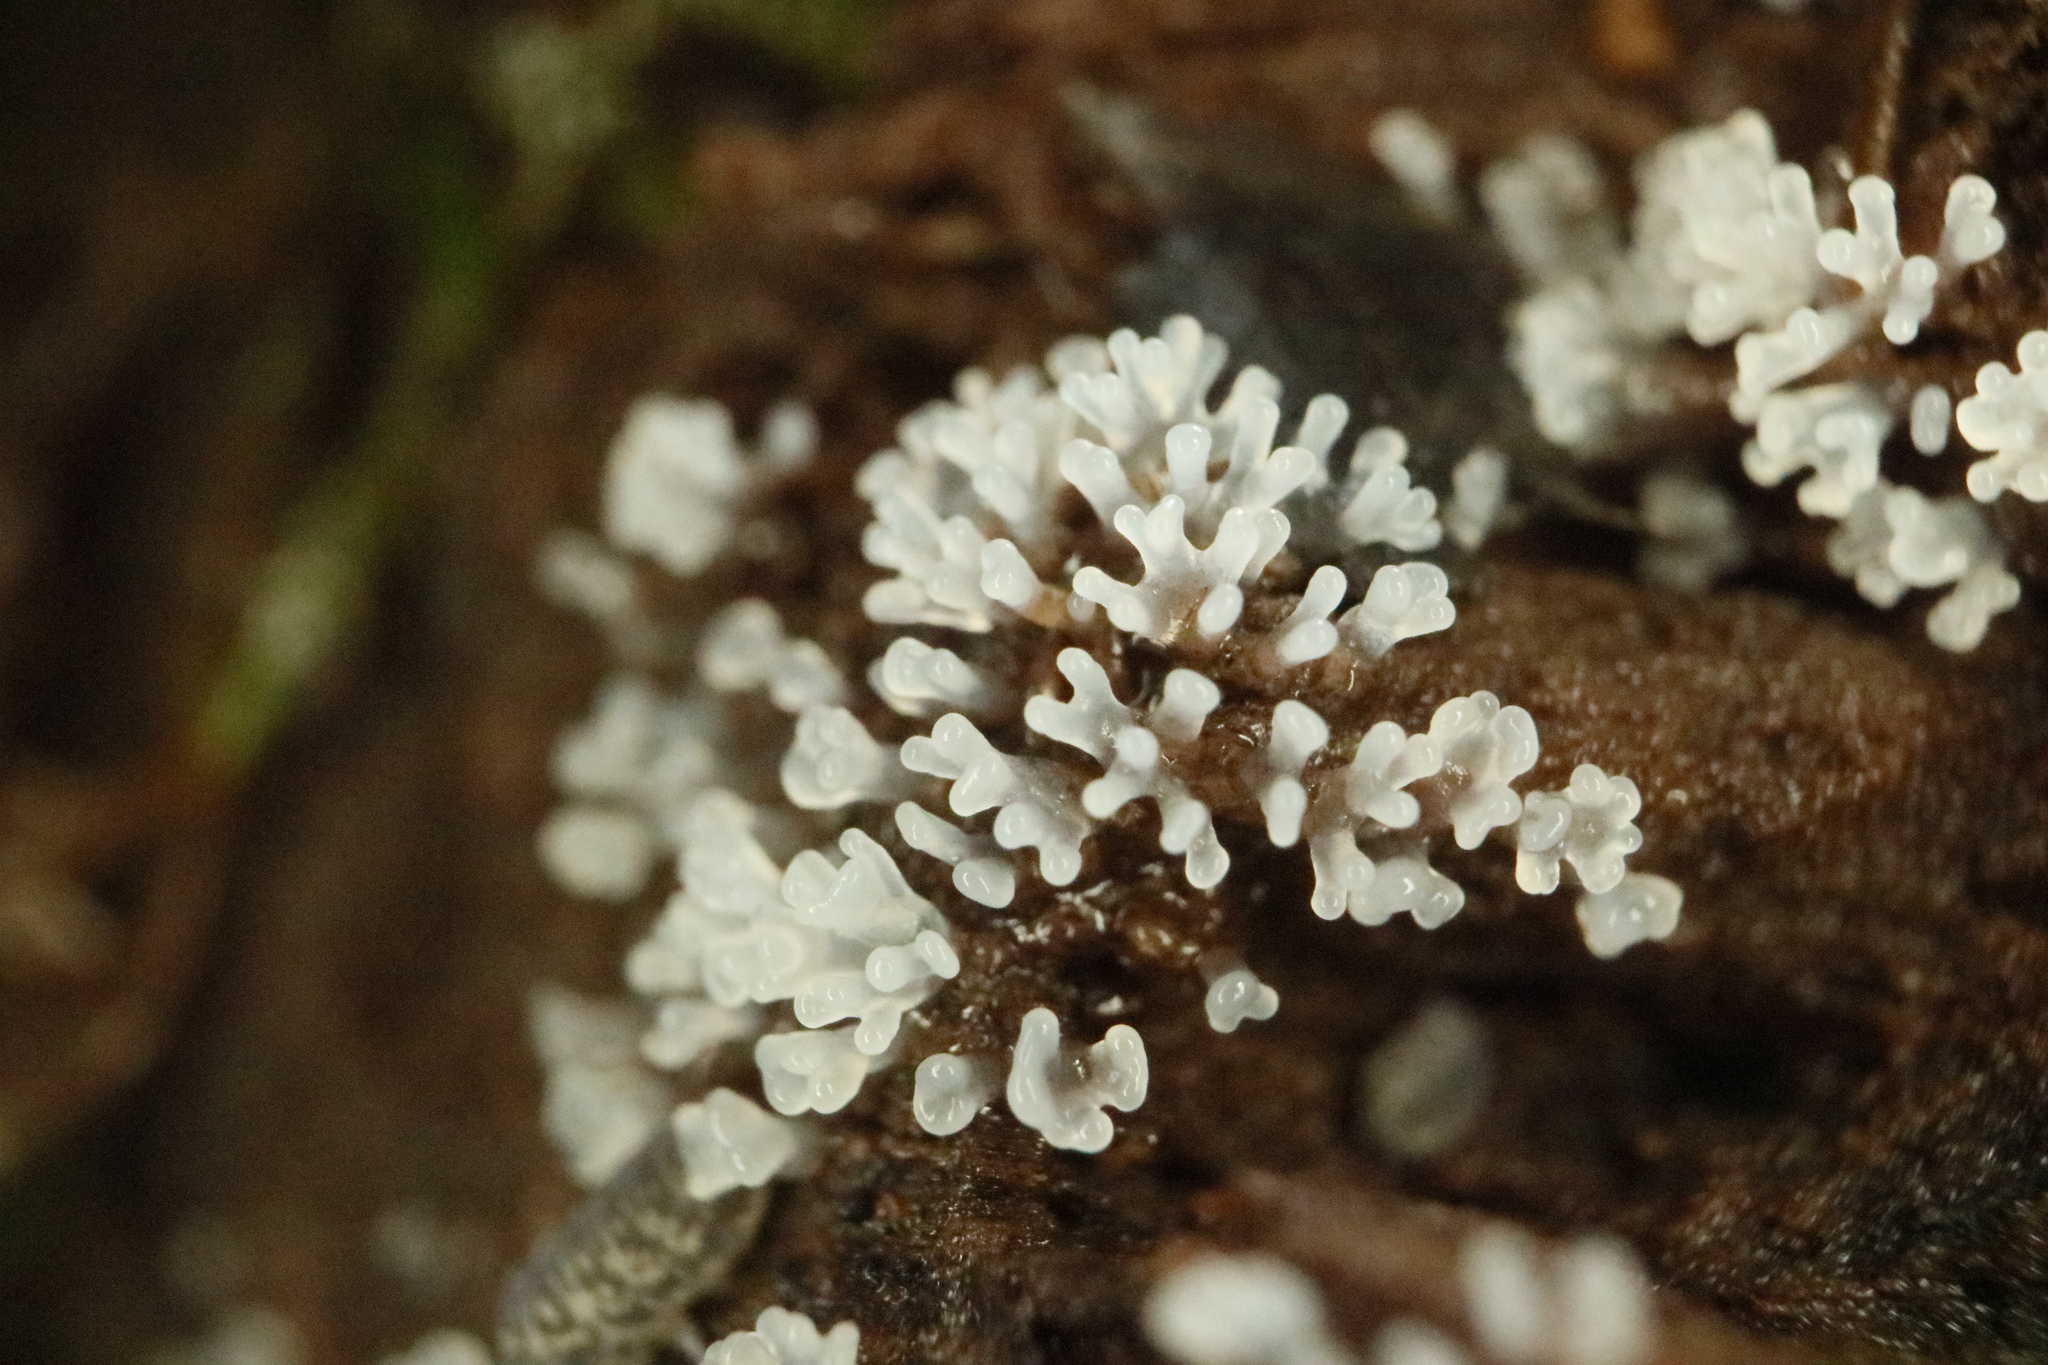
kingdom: Protozoa
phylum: Mycetozoa
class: Protosteliomycetes
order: Ceratiomyxales
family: Ceratiomyxaceae
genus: Ceratiomyxa
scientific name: Ceratiomyxa fruticulosa
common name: Honeycomb coral slime mold
